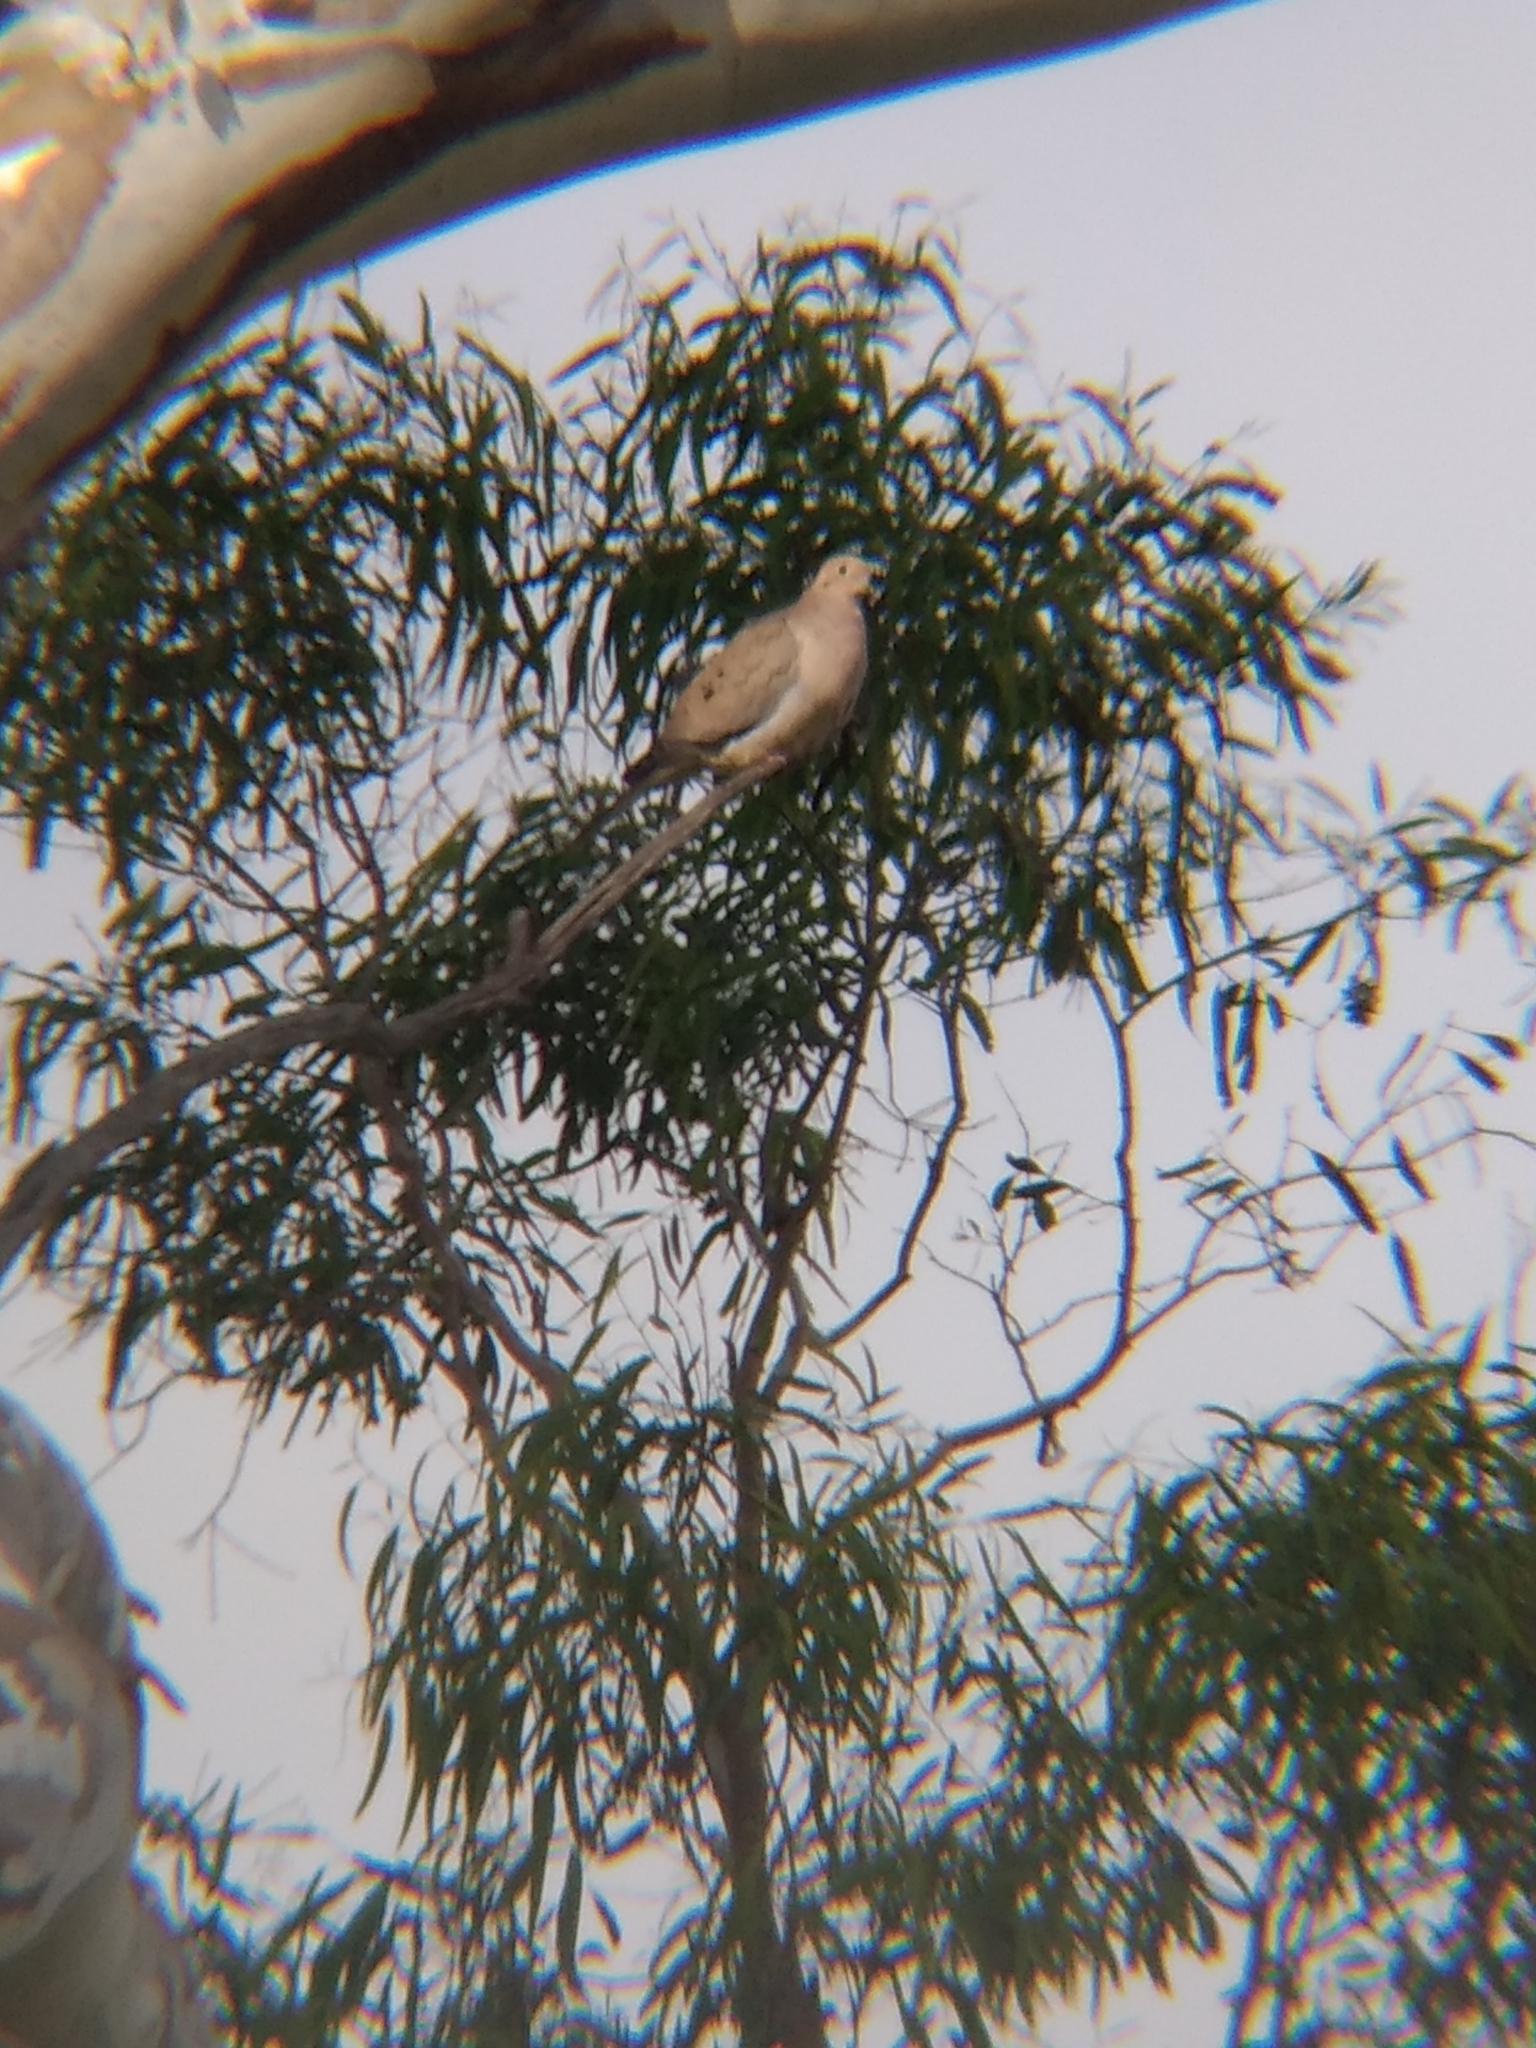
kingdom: Animalia
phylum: Chordata
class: Aves
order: Columbiformes
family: Columbidae
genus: Zenaida
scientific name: Zenaida macroura
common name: Mourning dove
